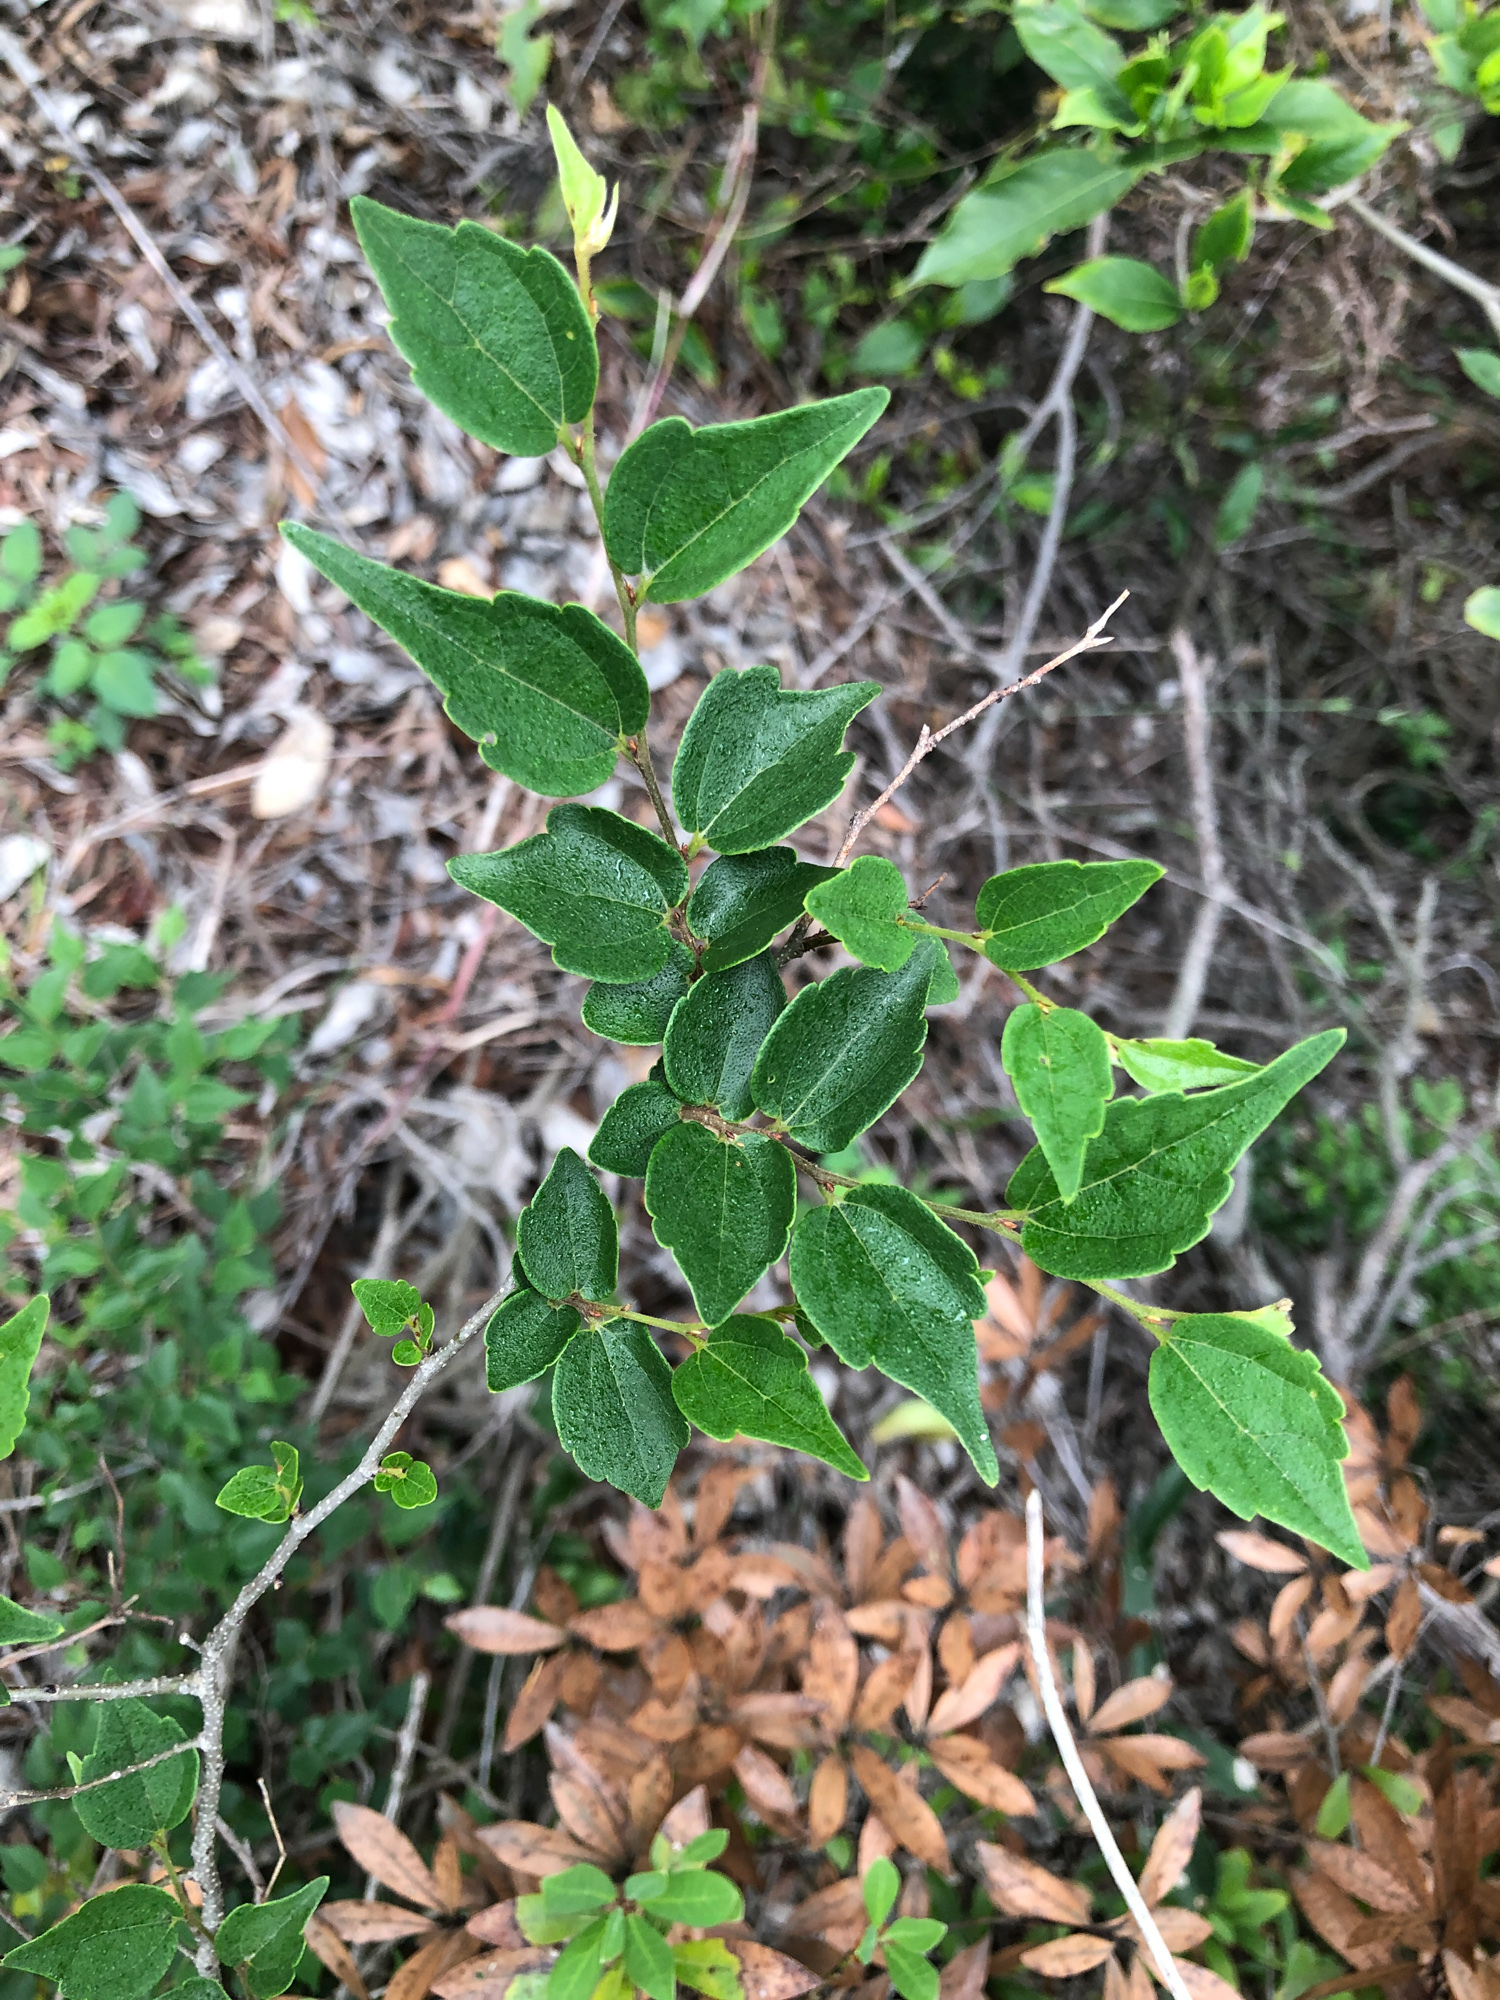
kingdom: Plantae
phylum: Tracheophyta
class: Magnoliopsida
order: Rosales
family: Cannabaceae
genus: Celtis
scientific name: Celtis biondii
